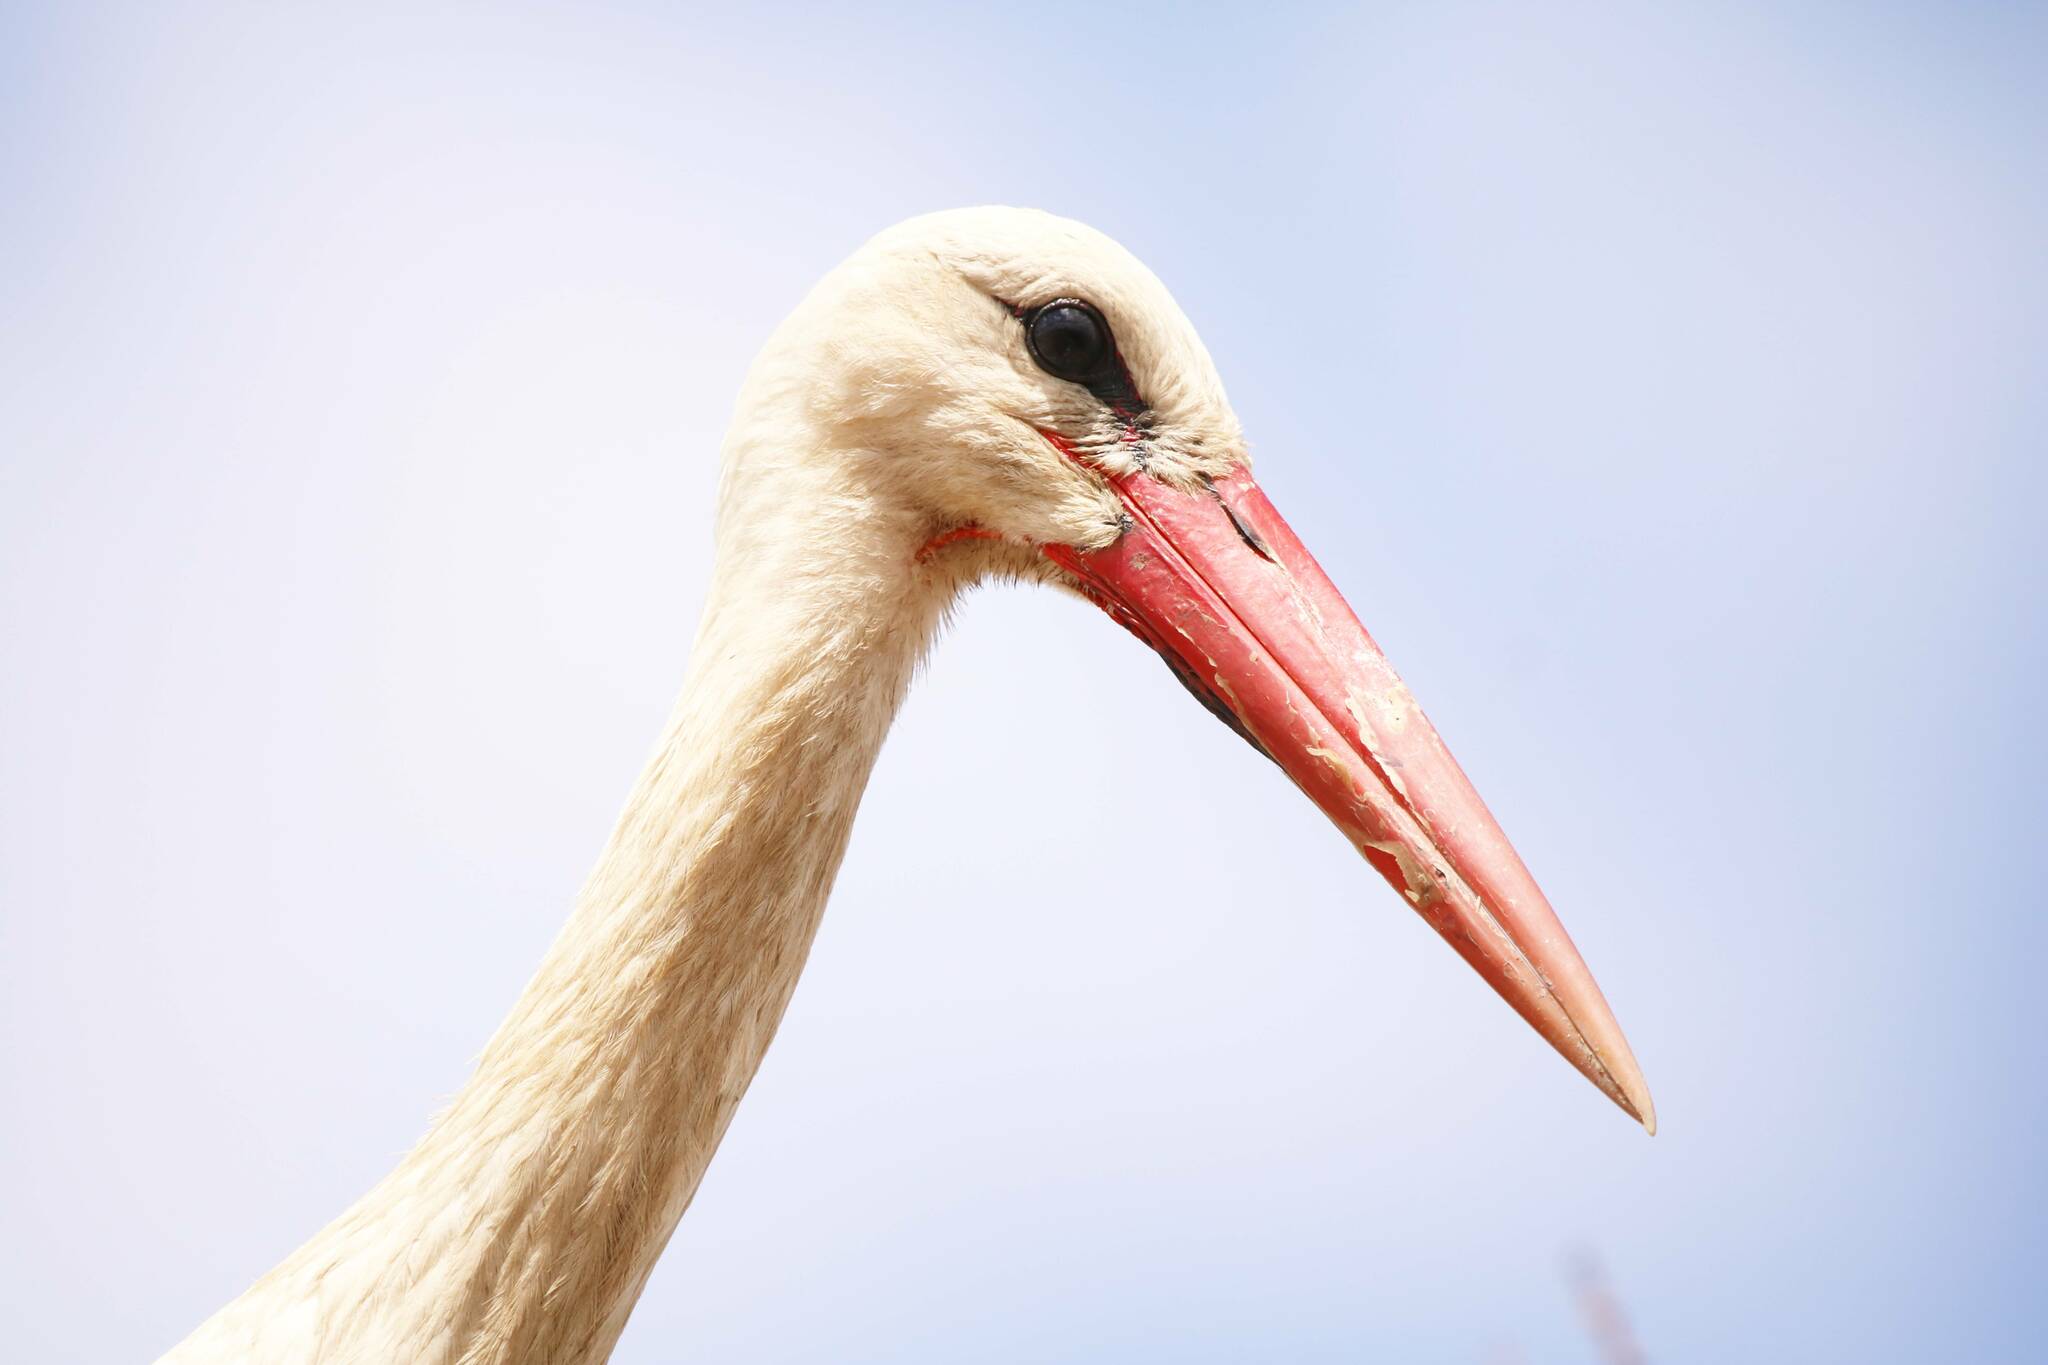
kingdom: Animalia
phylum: Chordata
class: Aves
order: Ciconiiformes
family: Ciconiidae
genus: Ciconia
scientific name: Ciconia ciconia
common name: White stork
